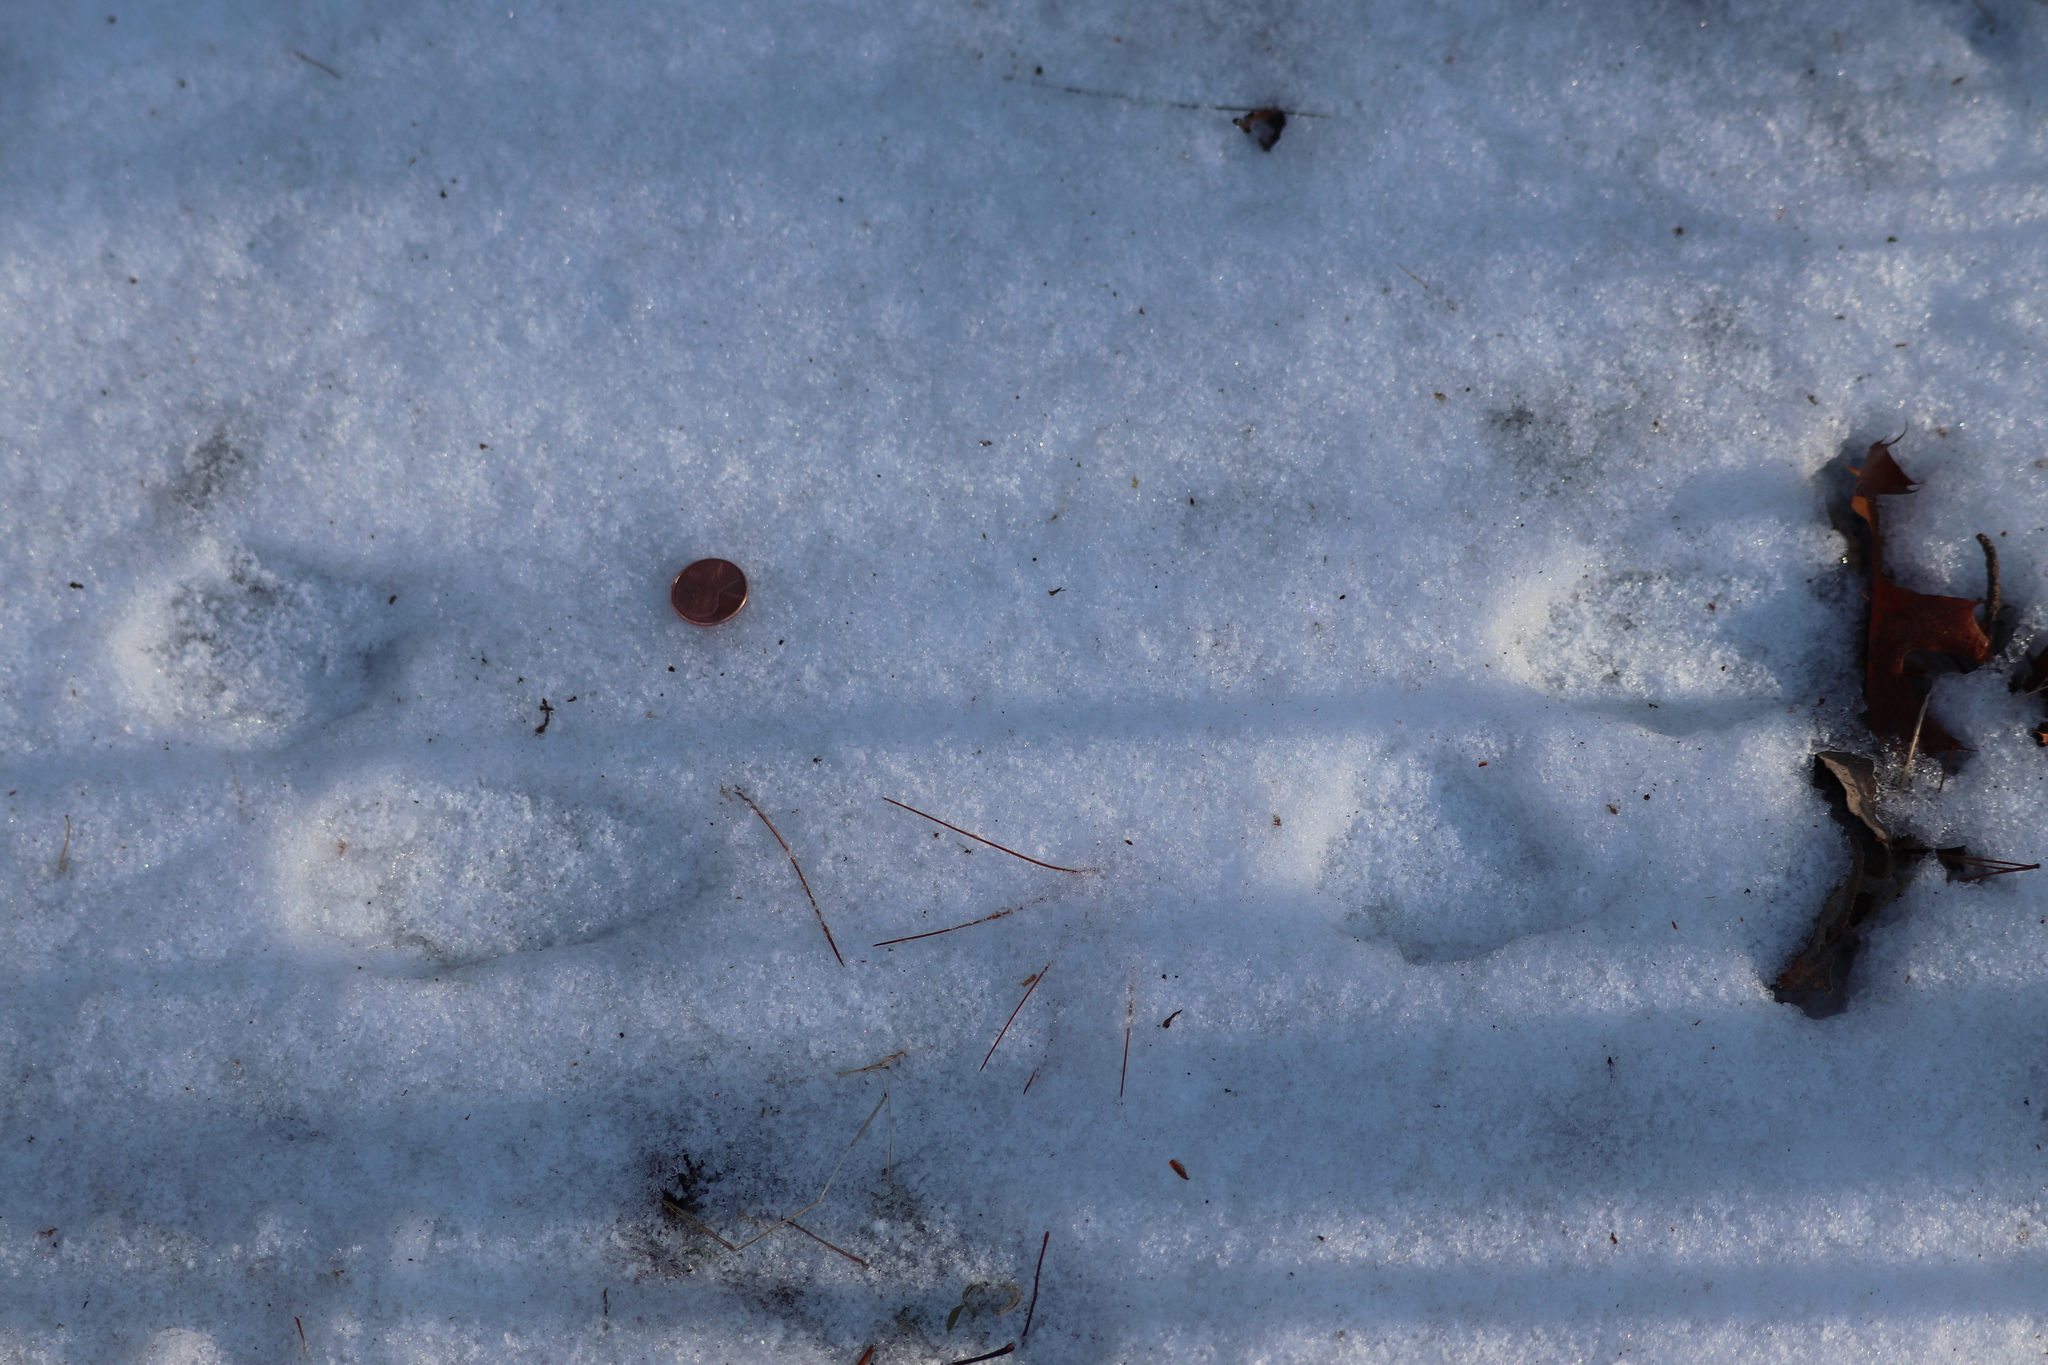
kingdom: Animalia
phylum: Chordata
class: Mammalia
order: Carnivora
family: Procyonidae
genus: Procyon
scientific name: Procyon lotor
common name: Raccoon
